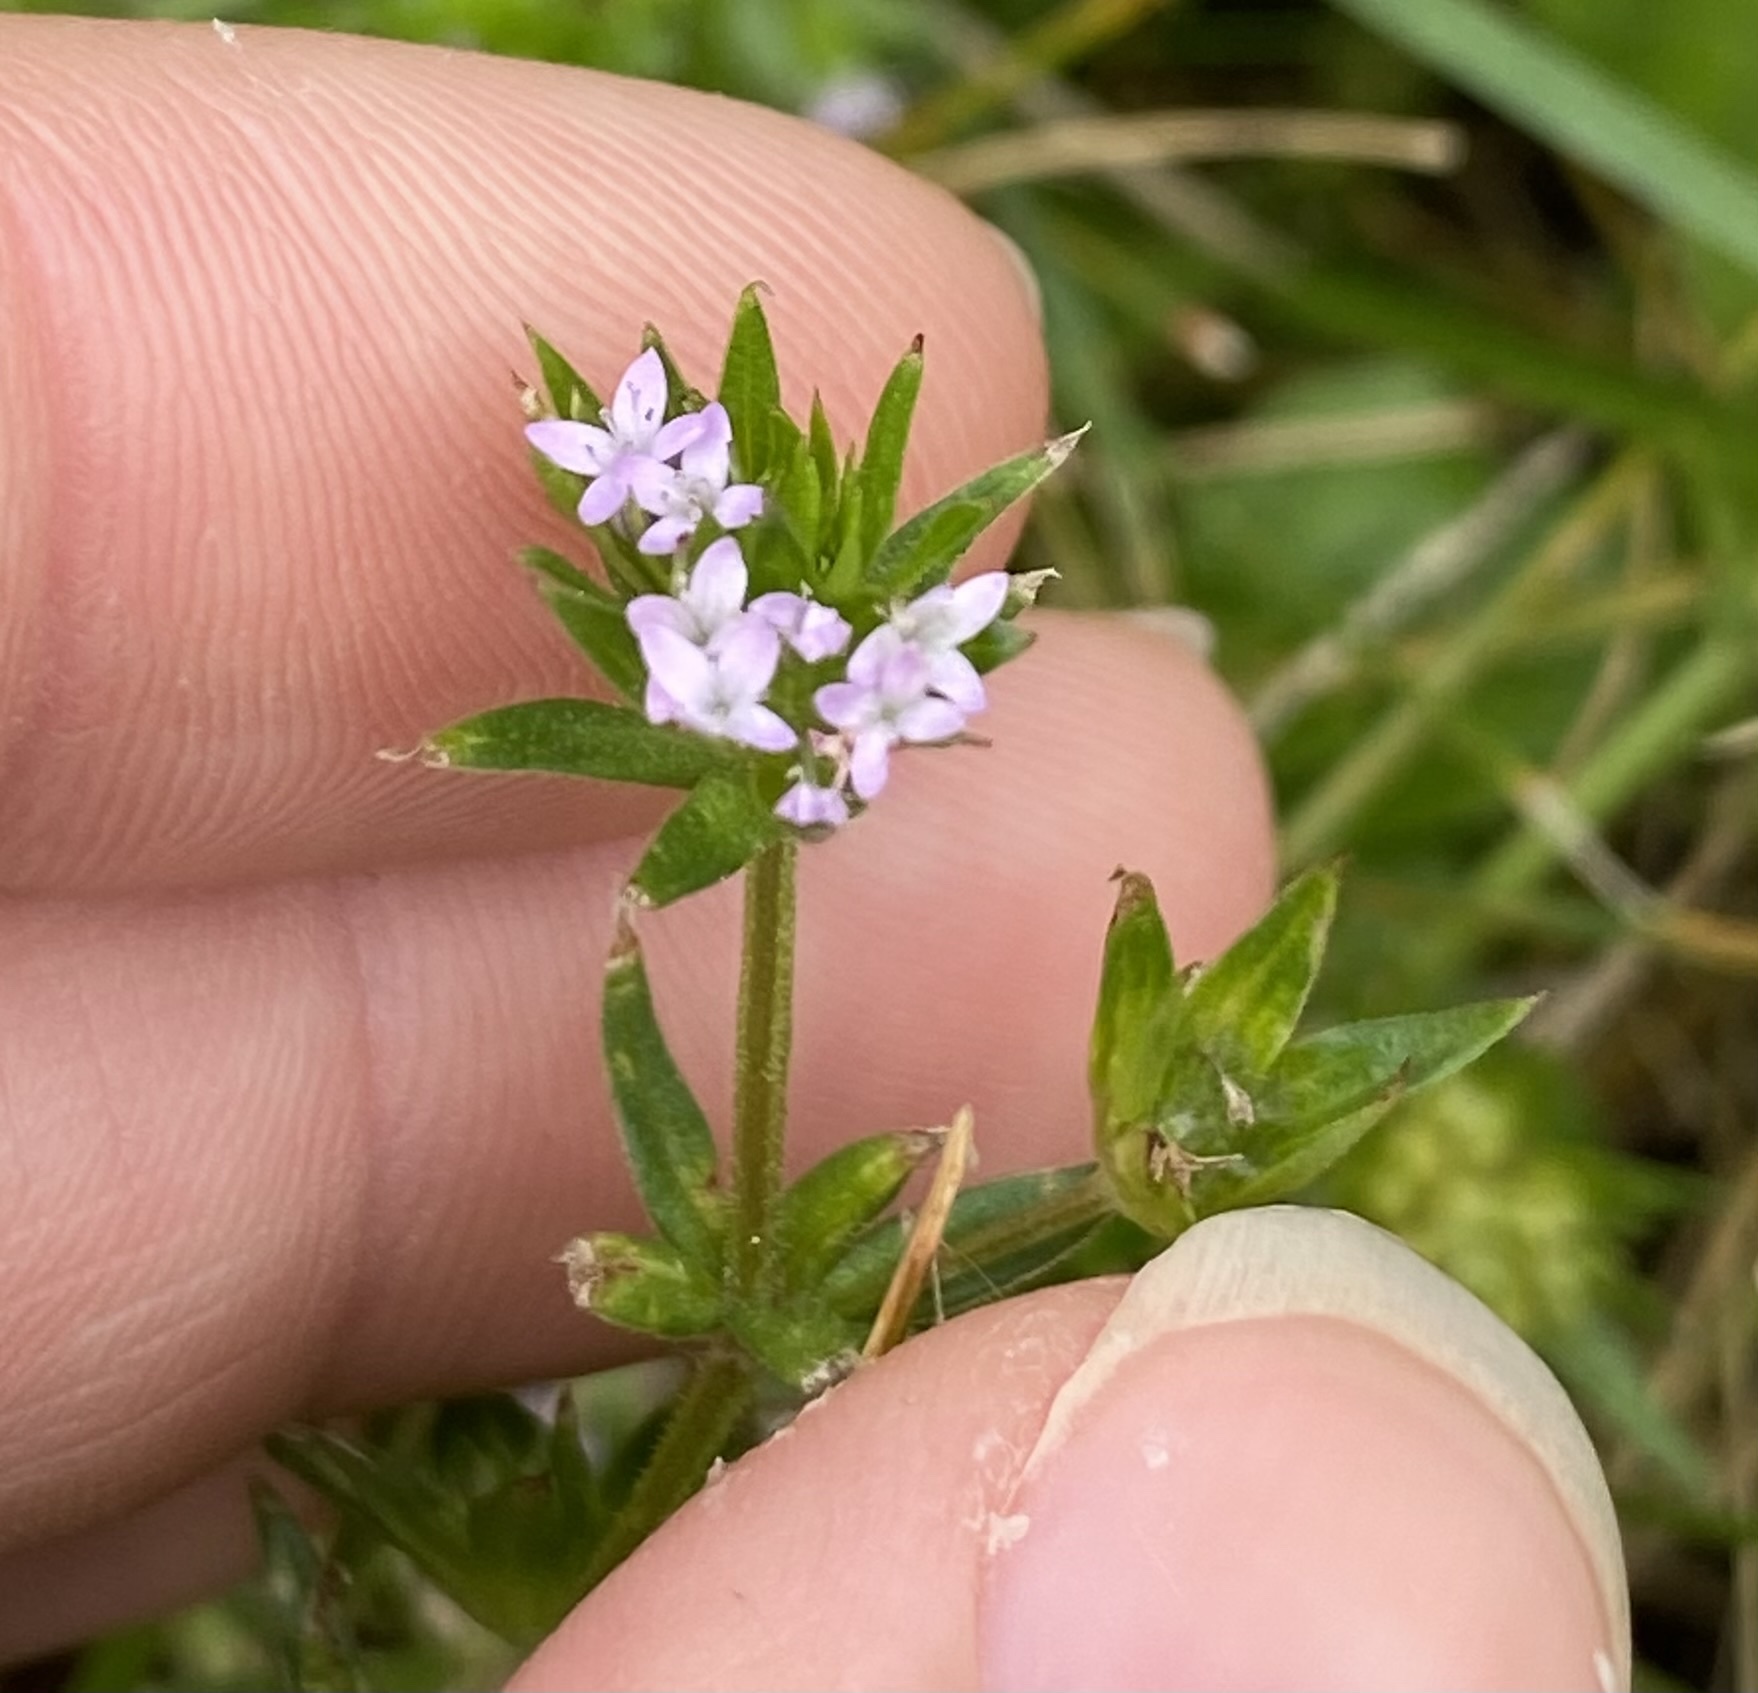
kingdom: Plantae
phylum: Tracheophyta
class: Magnoliopsida
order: Gentianales
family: Rubiaceae
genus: Sherardia
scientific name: Sherardia arvensis
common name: Field madder
